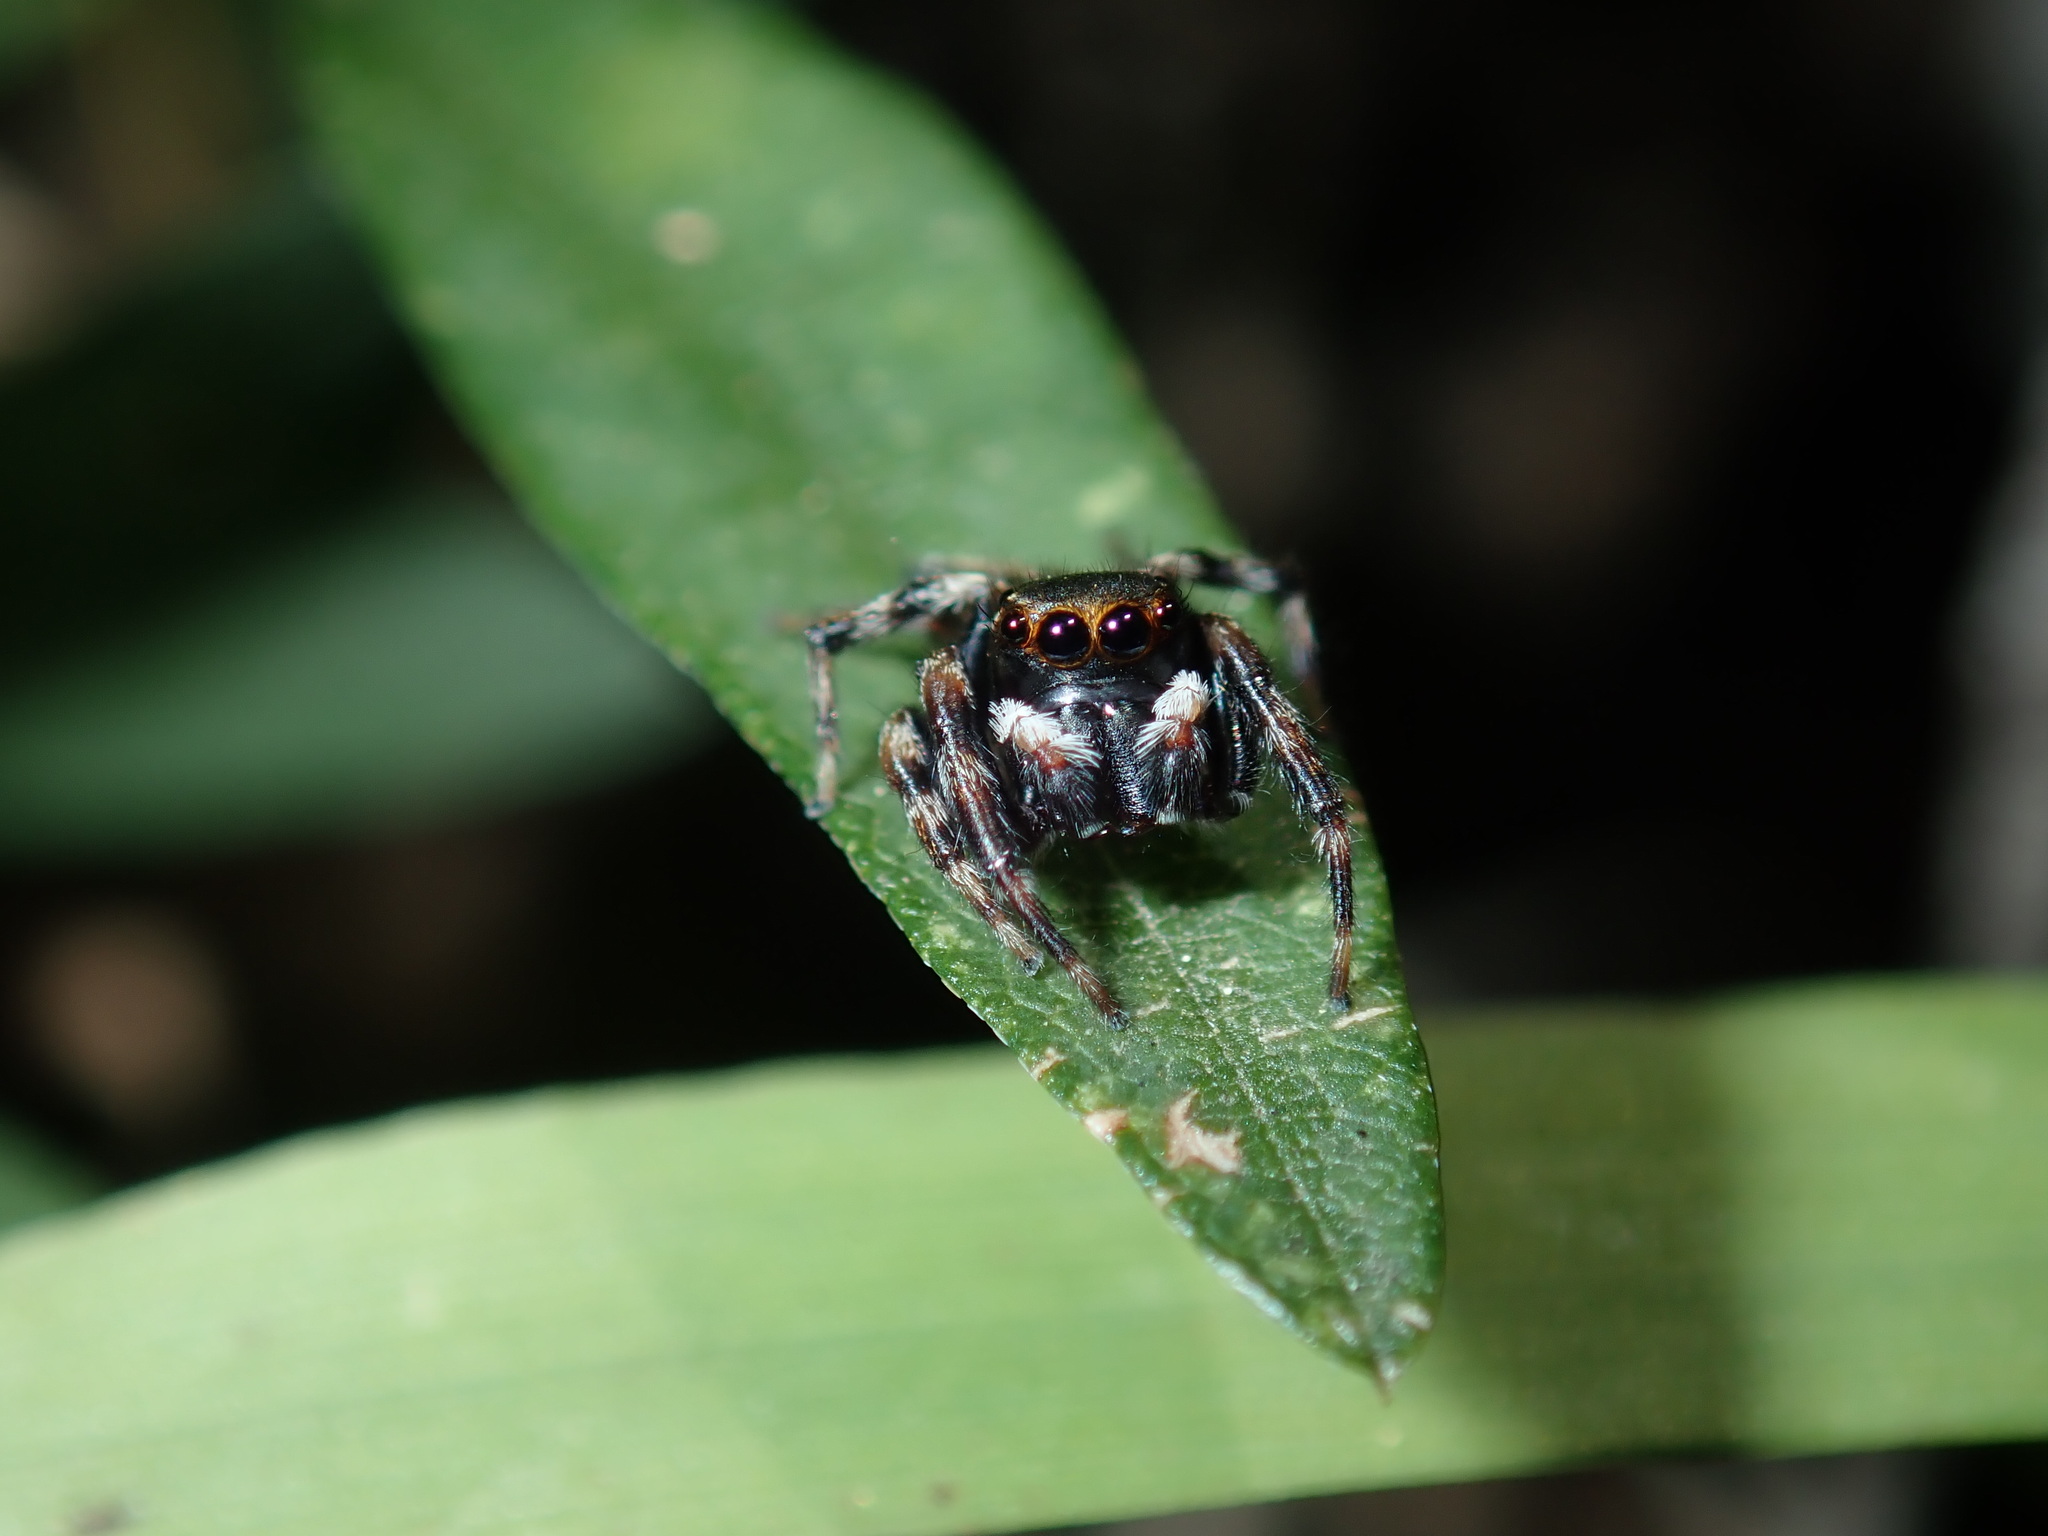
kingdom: Animalia
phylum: Arthropoda
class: Arachnida
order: Araneae
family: Salticidae
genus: Maratus
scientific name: Maratus scutulatus
